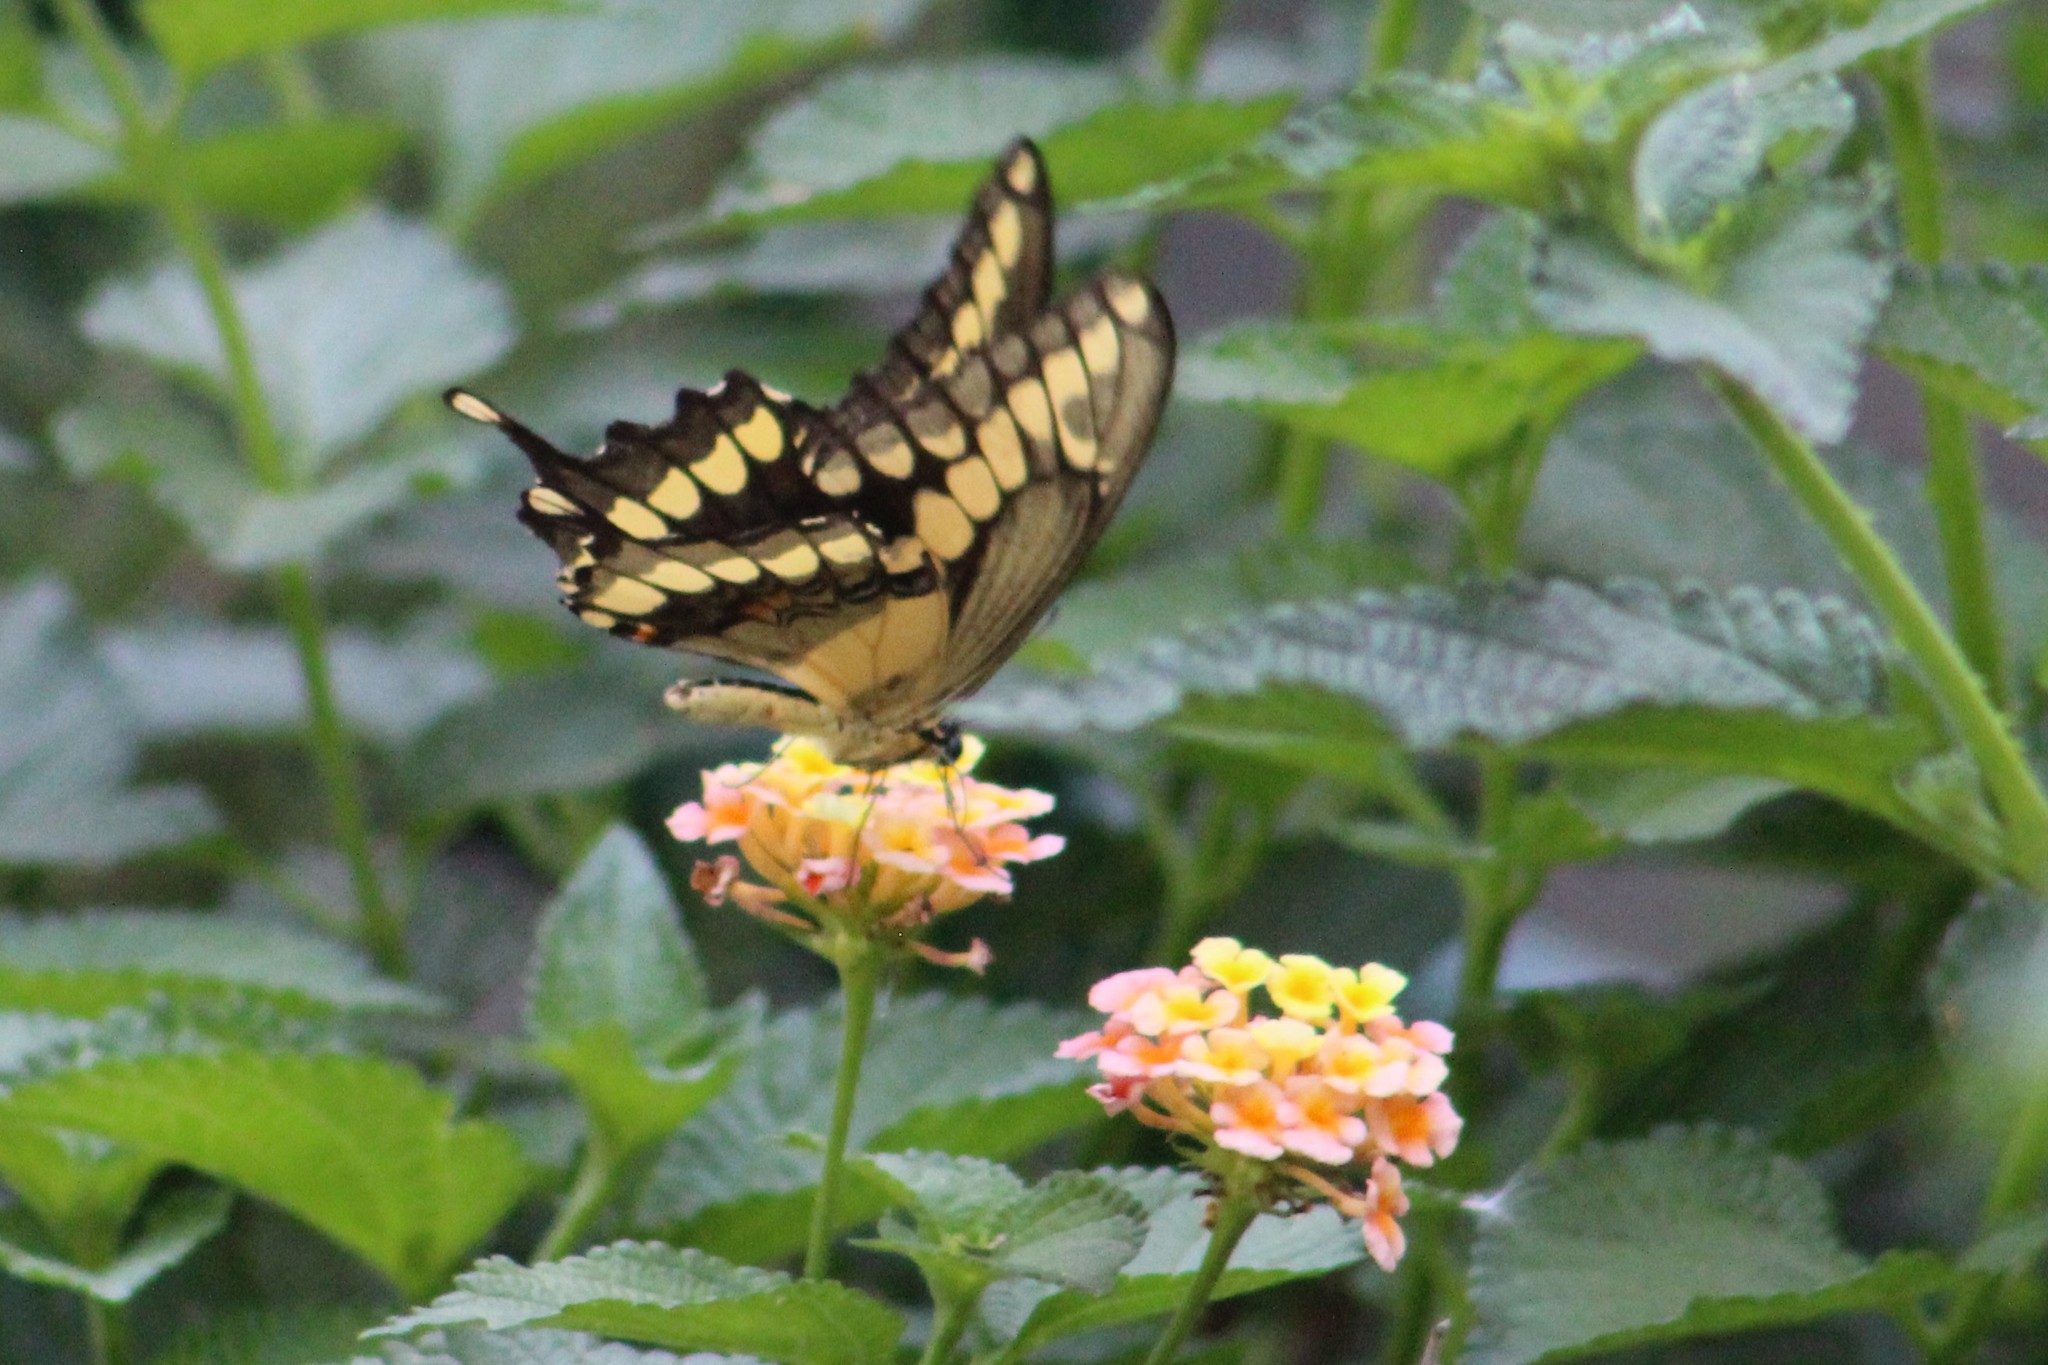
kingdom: Animalia
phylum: Arthropoda
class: Insecta
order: Lepidoptera
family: Papilionidae
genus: Papilio
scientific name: Papilio rumiko
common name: Western giant swallowtail
